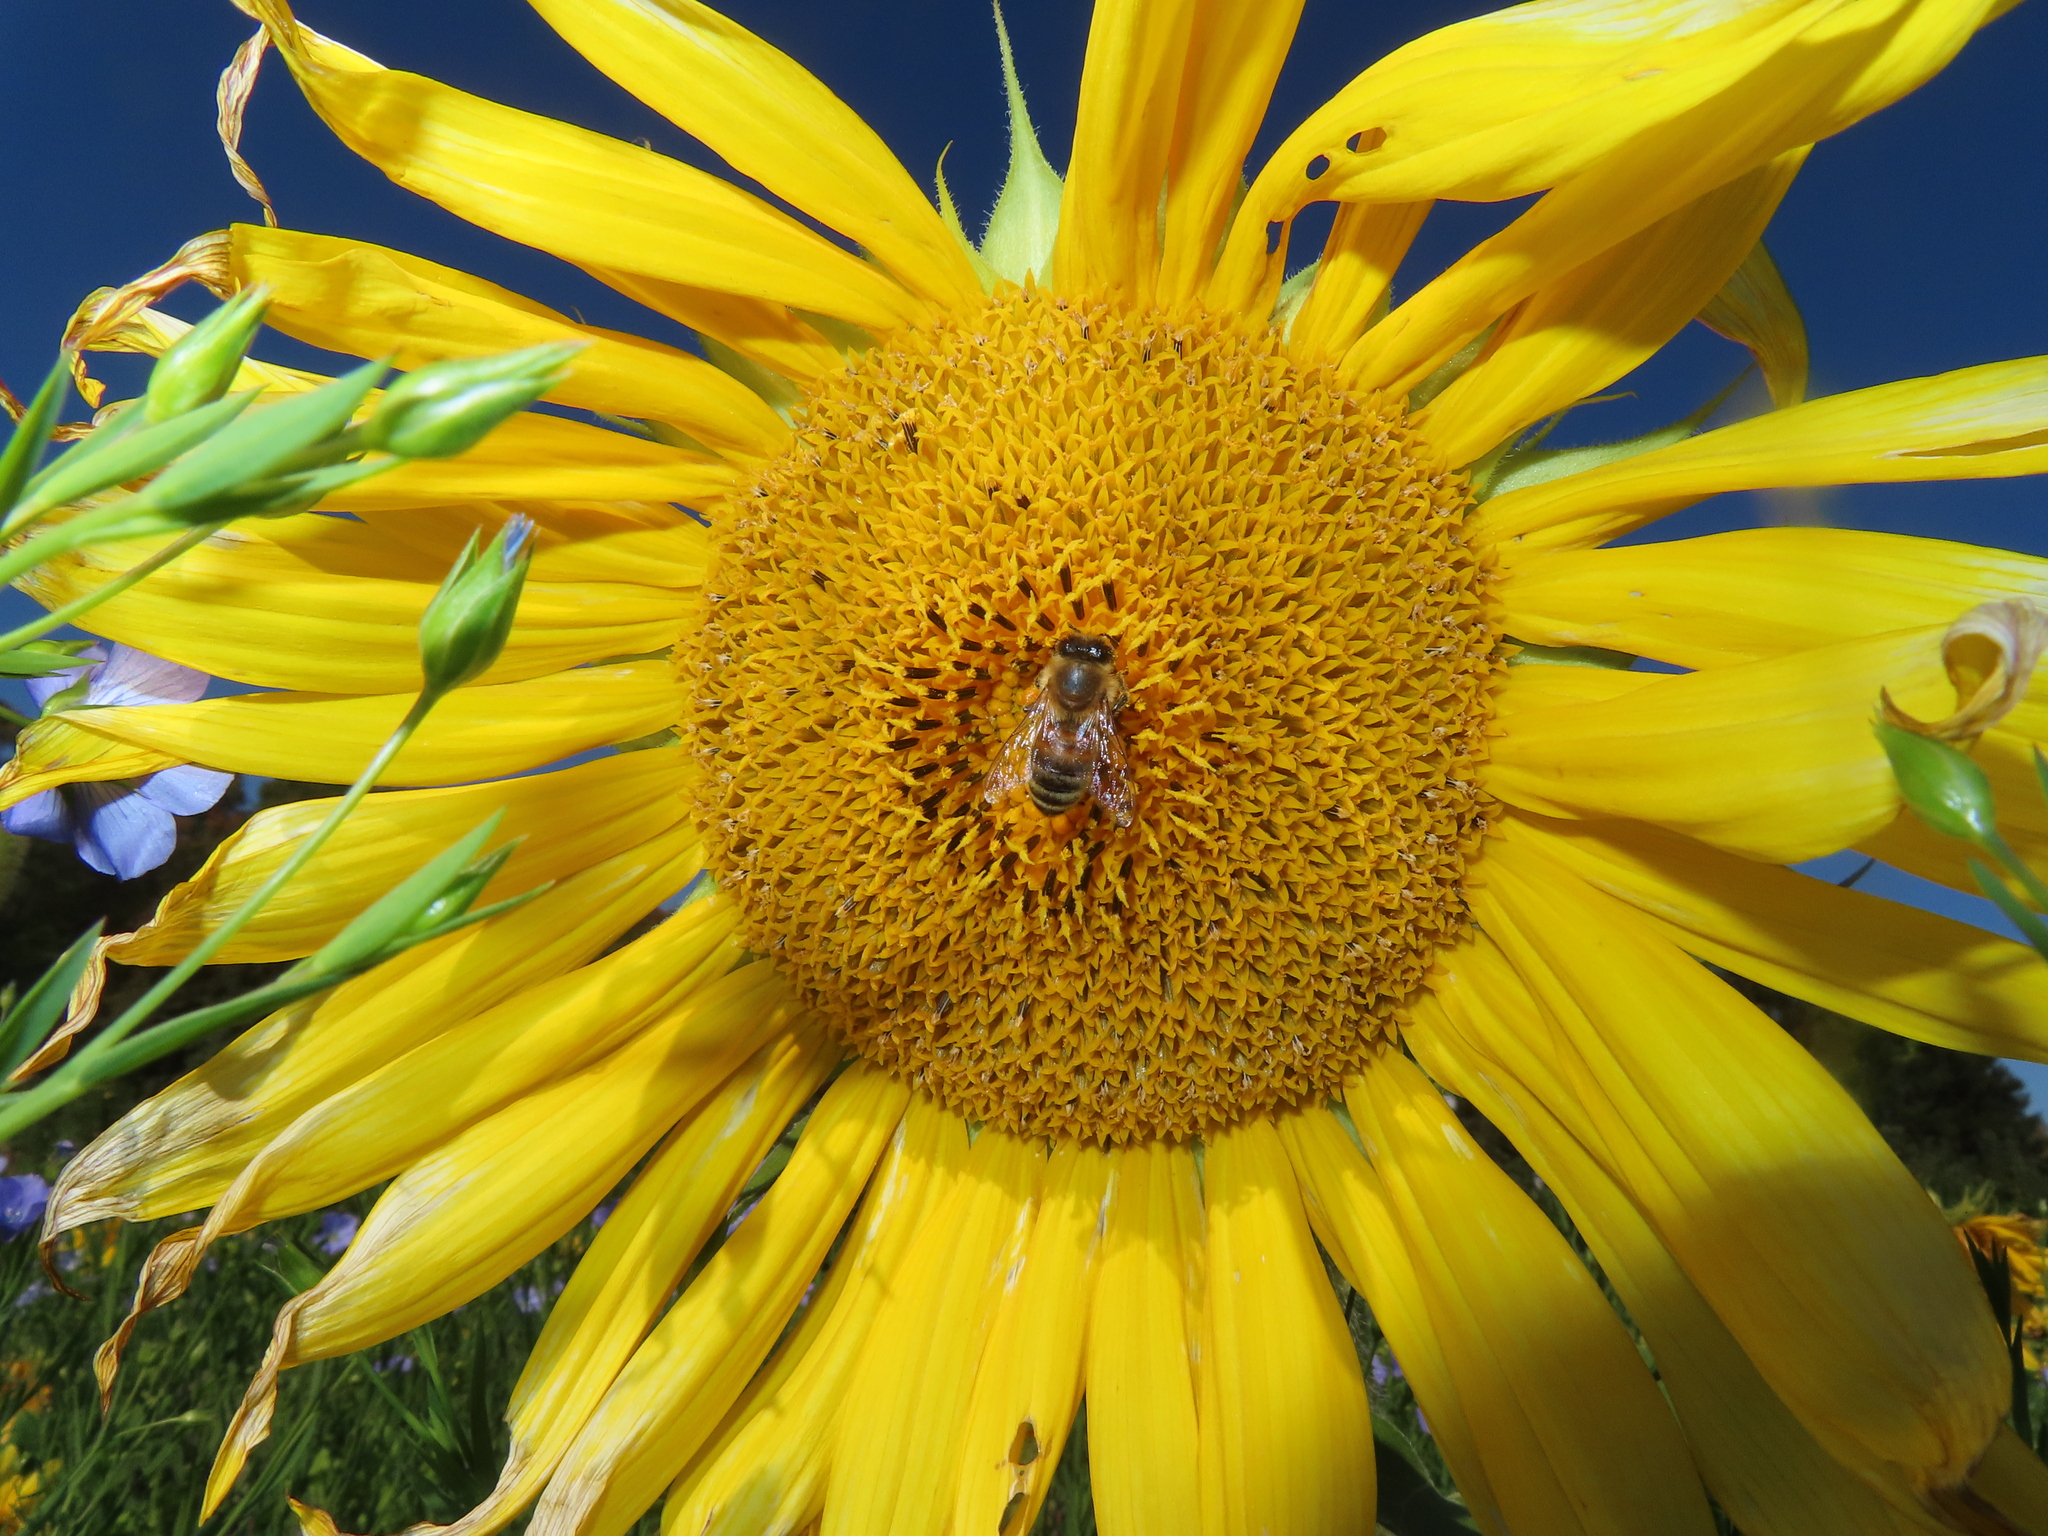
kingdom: Animalia
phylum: Arthropoda
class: Insecta
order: Hymenoptera
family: Apidae
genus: Apis
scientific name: Apis mellifera
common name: Honey bee
